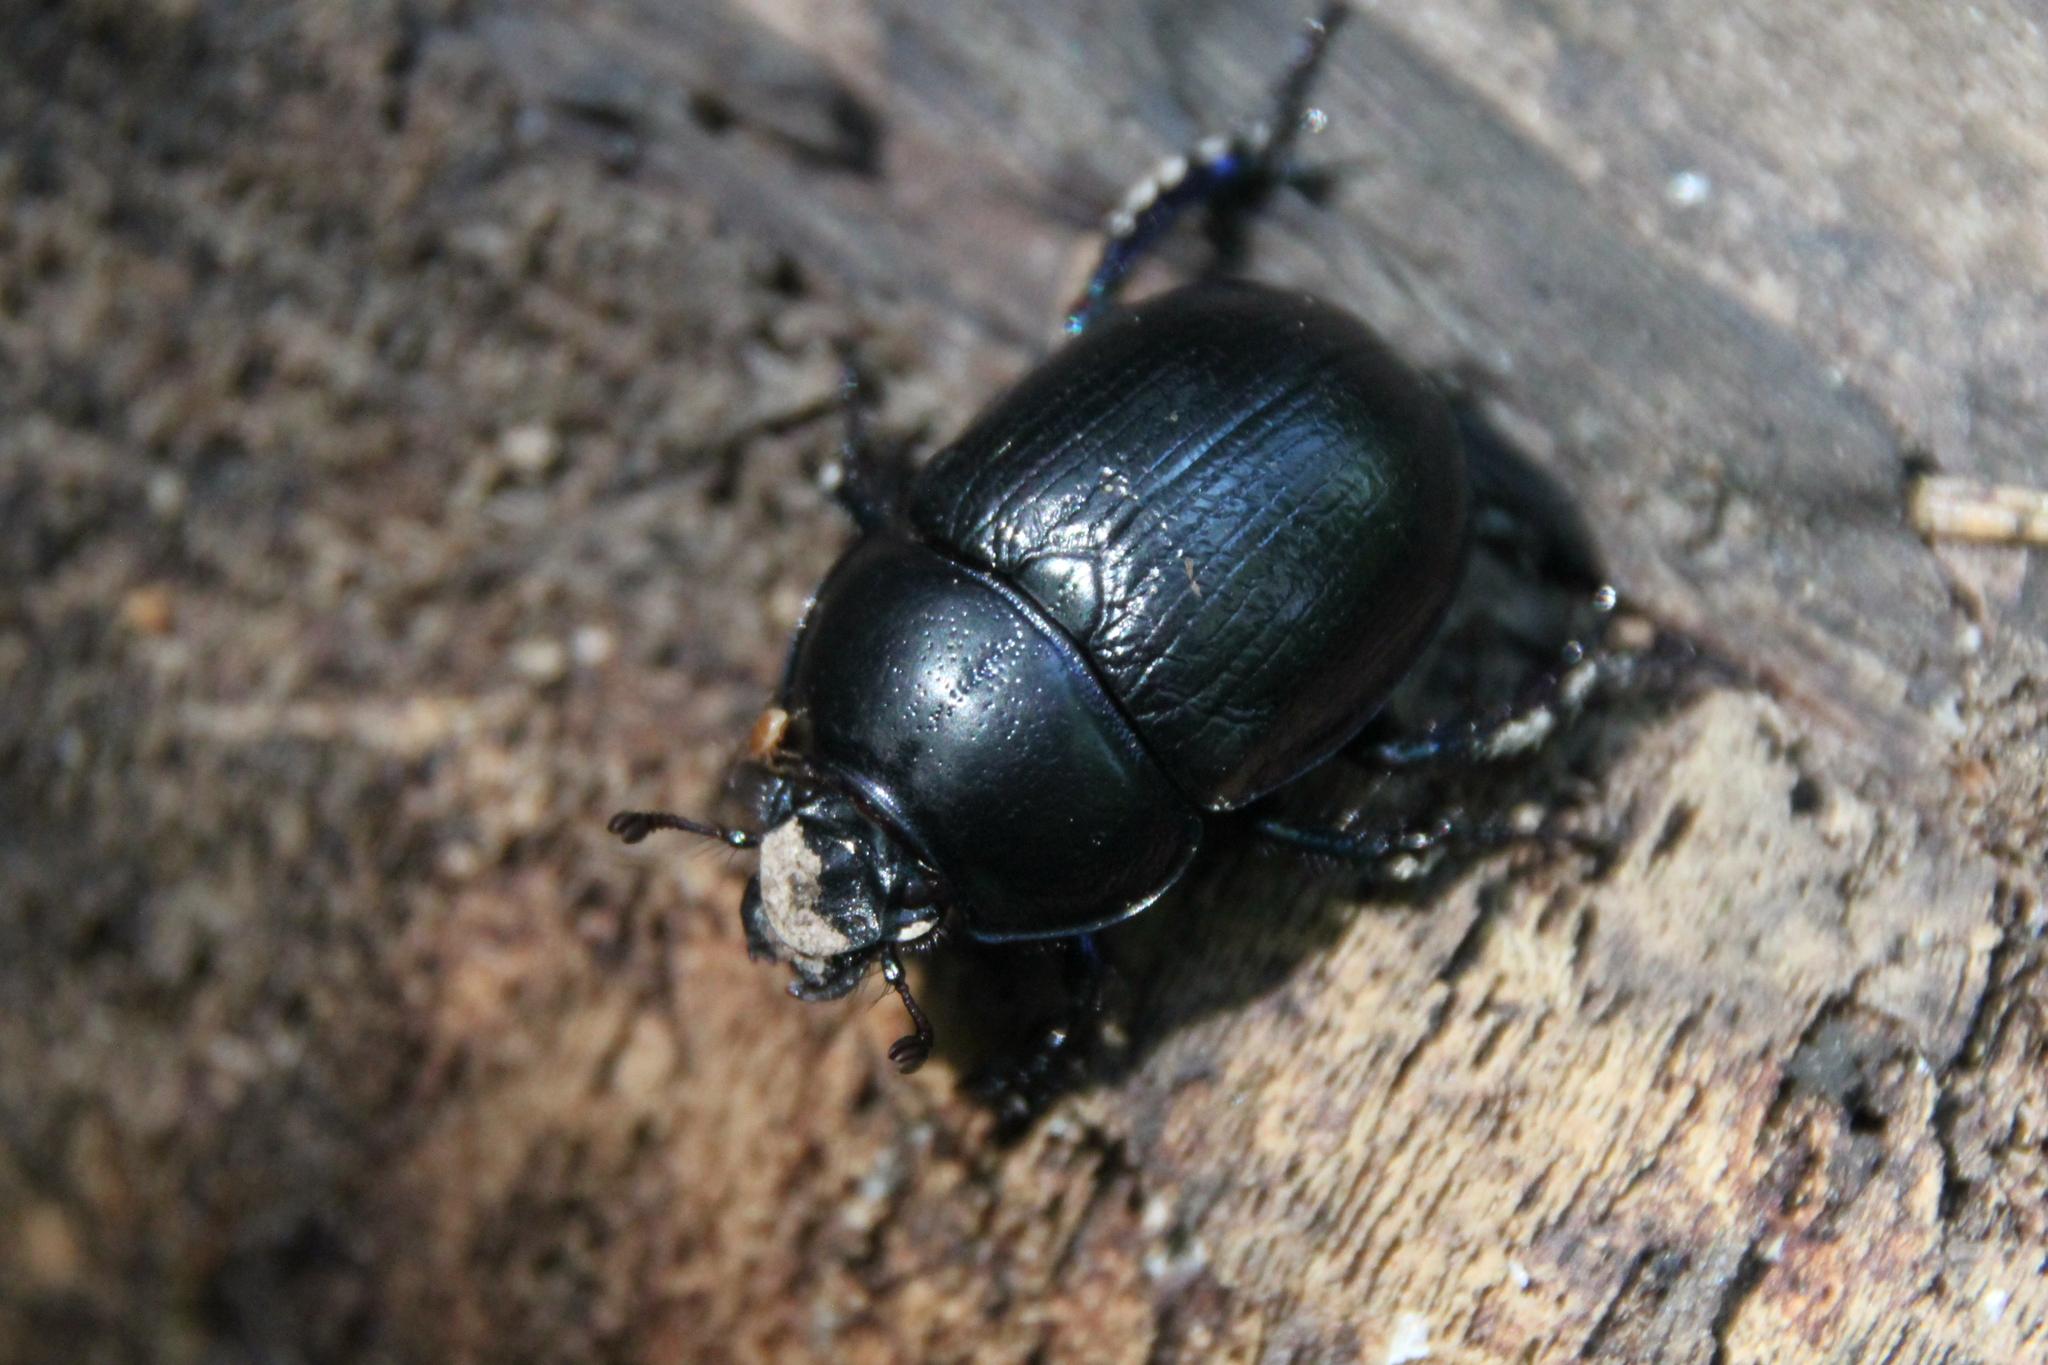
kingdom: Animalia
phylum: Arthropoda
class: Insecta
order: Coleoptera
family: Geotrupidae
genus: Anoplotrupes
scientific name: Anoplotrupes stercorosus
